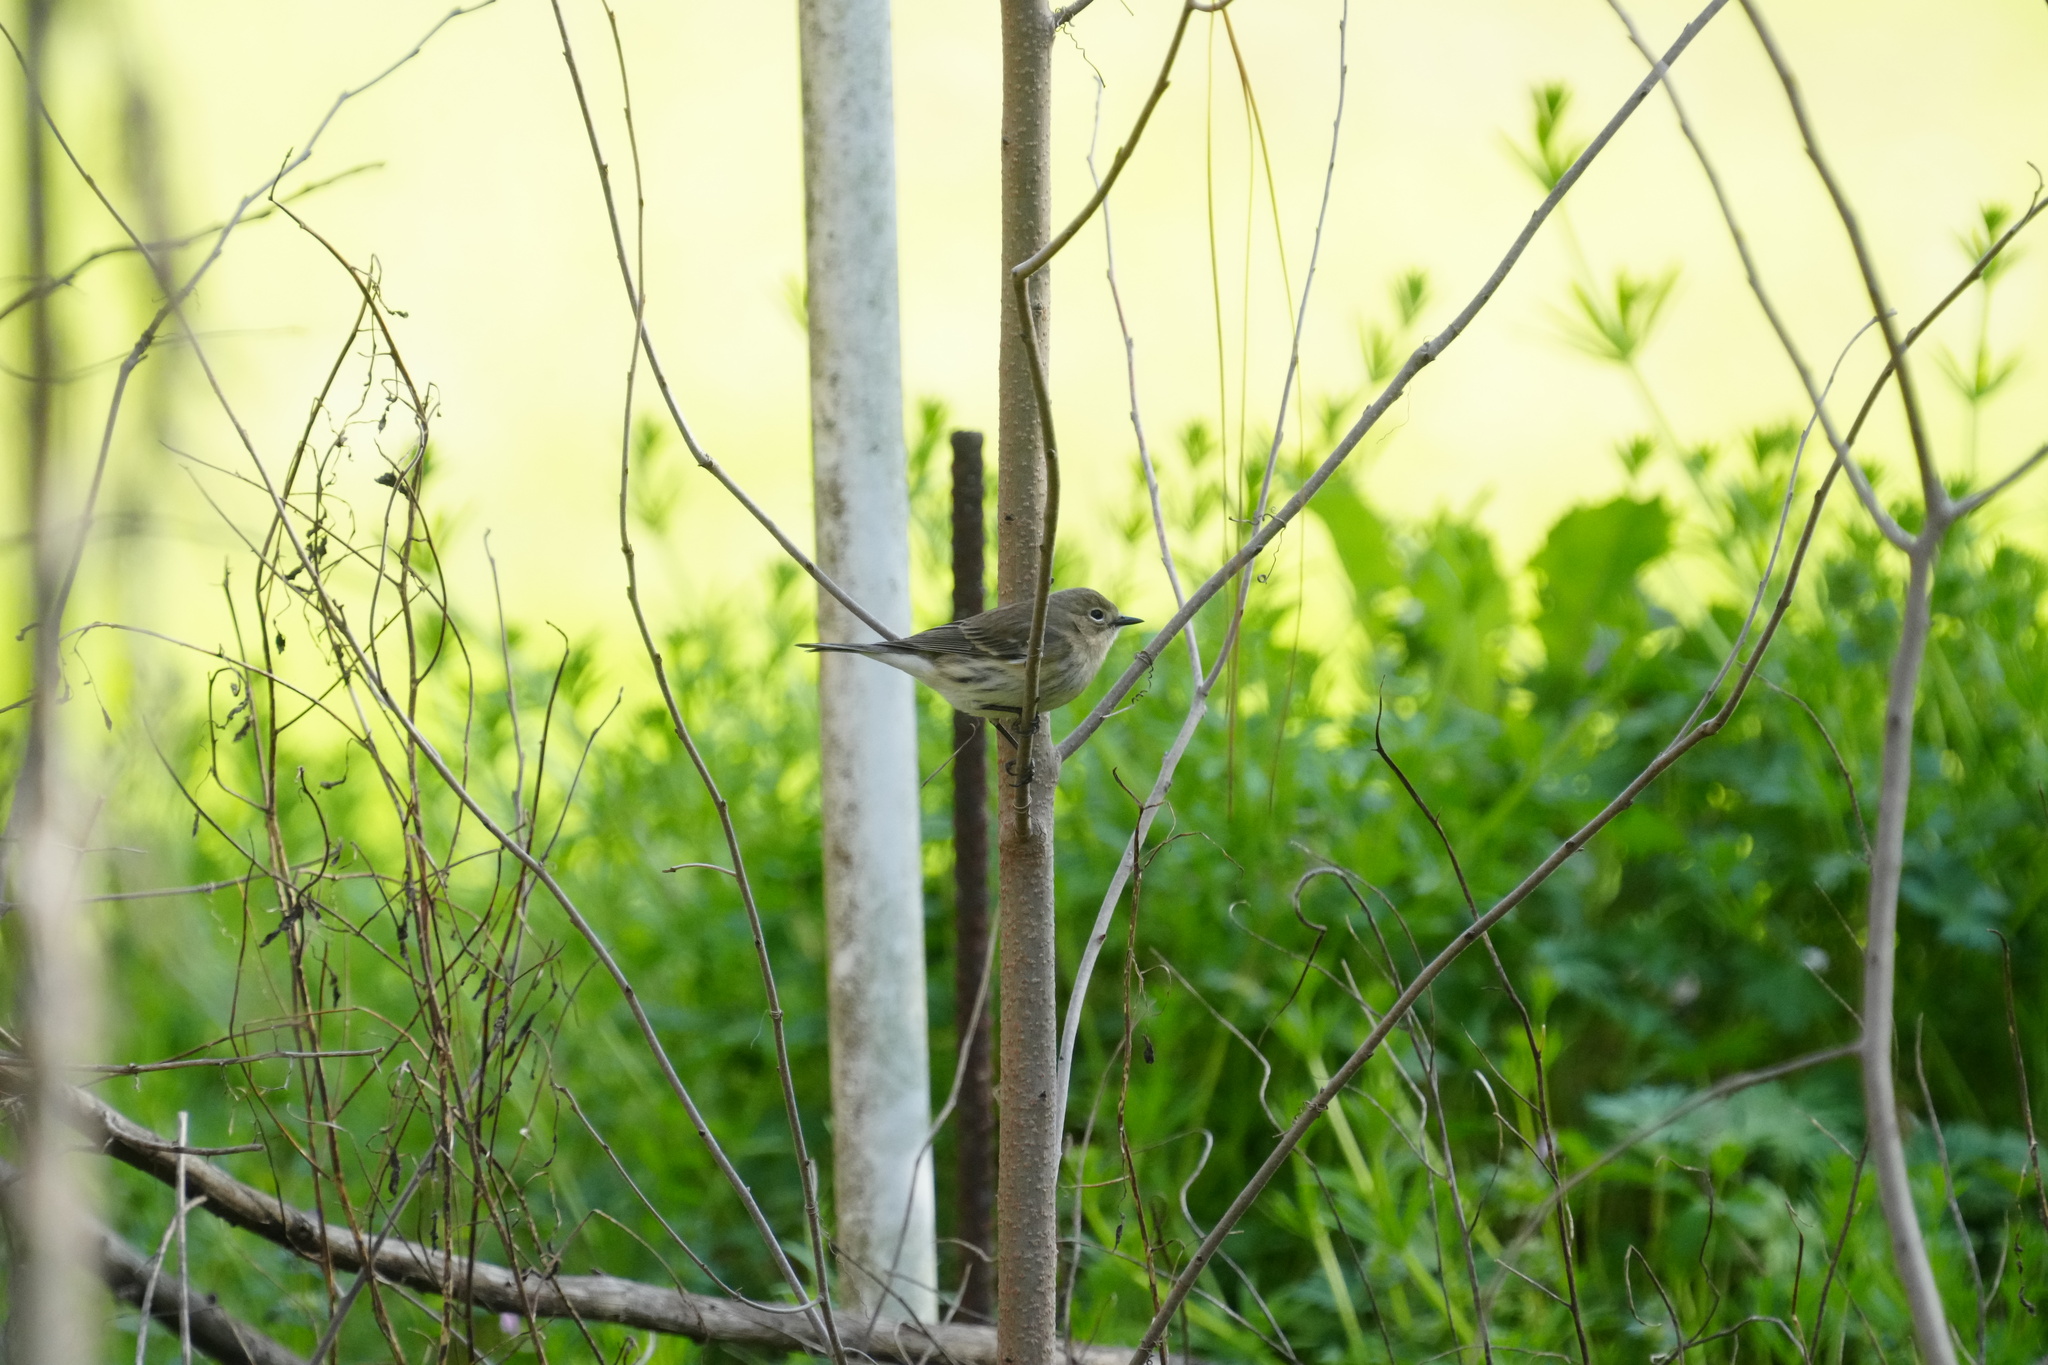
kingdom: Animalia
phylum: Chordata
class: Aves
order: Passeriformes
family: Parulidae
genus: Setophaga
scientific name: Setophaga coronata
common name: Myrtle warbler
